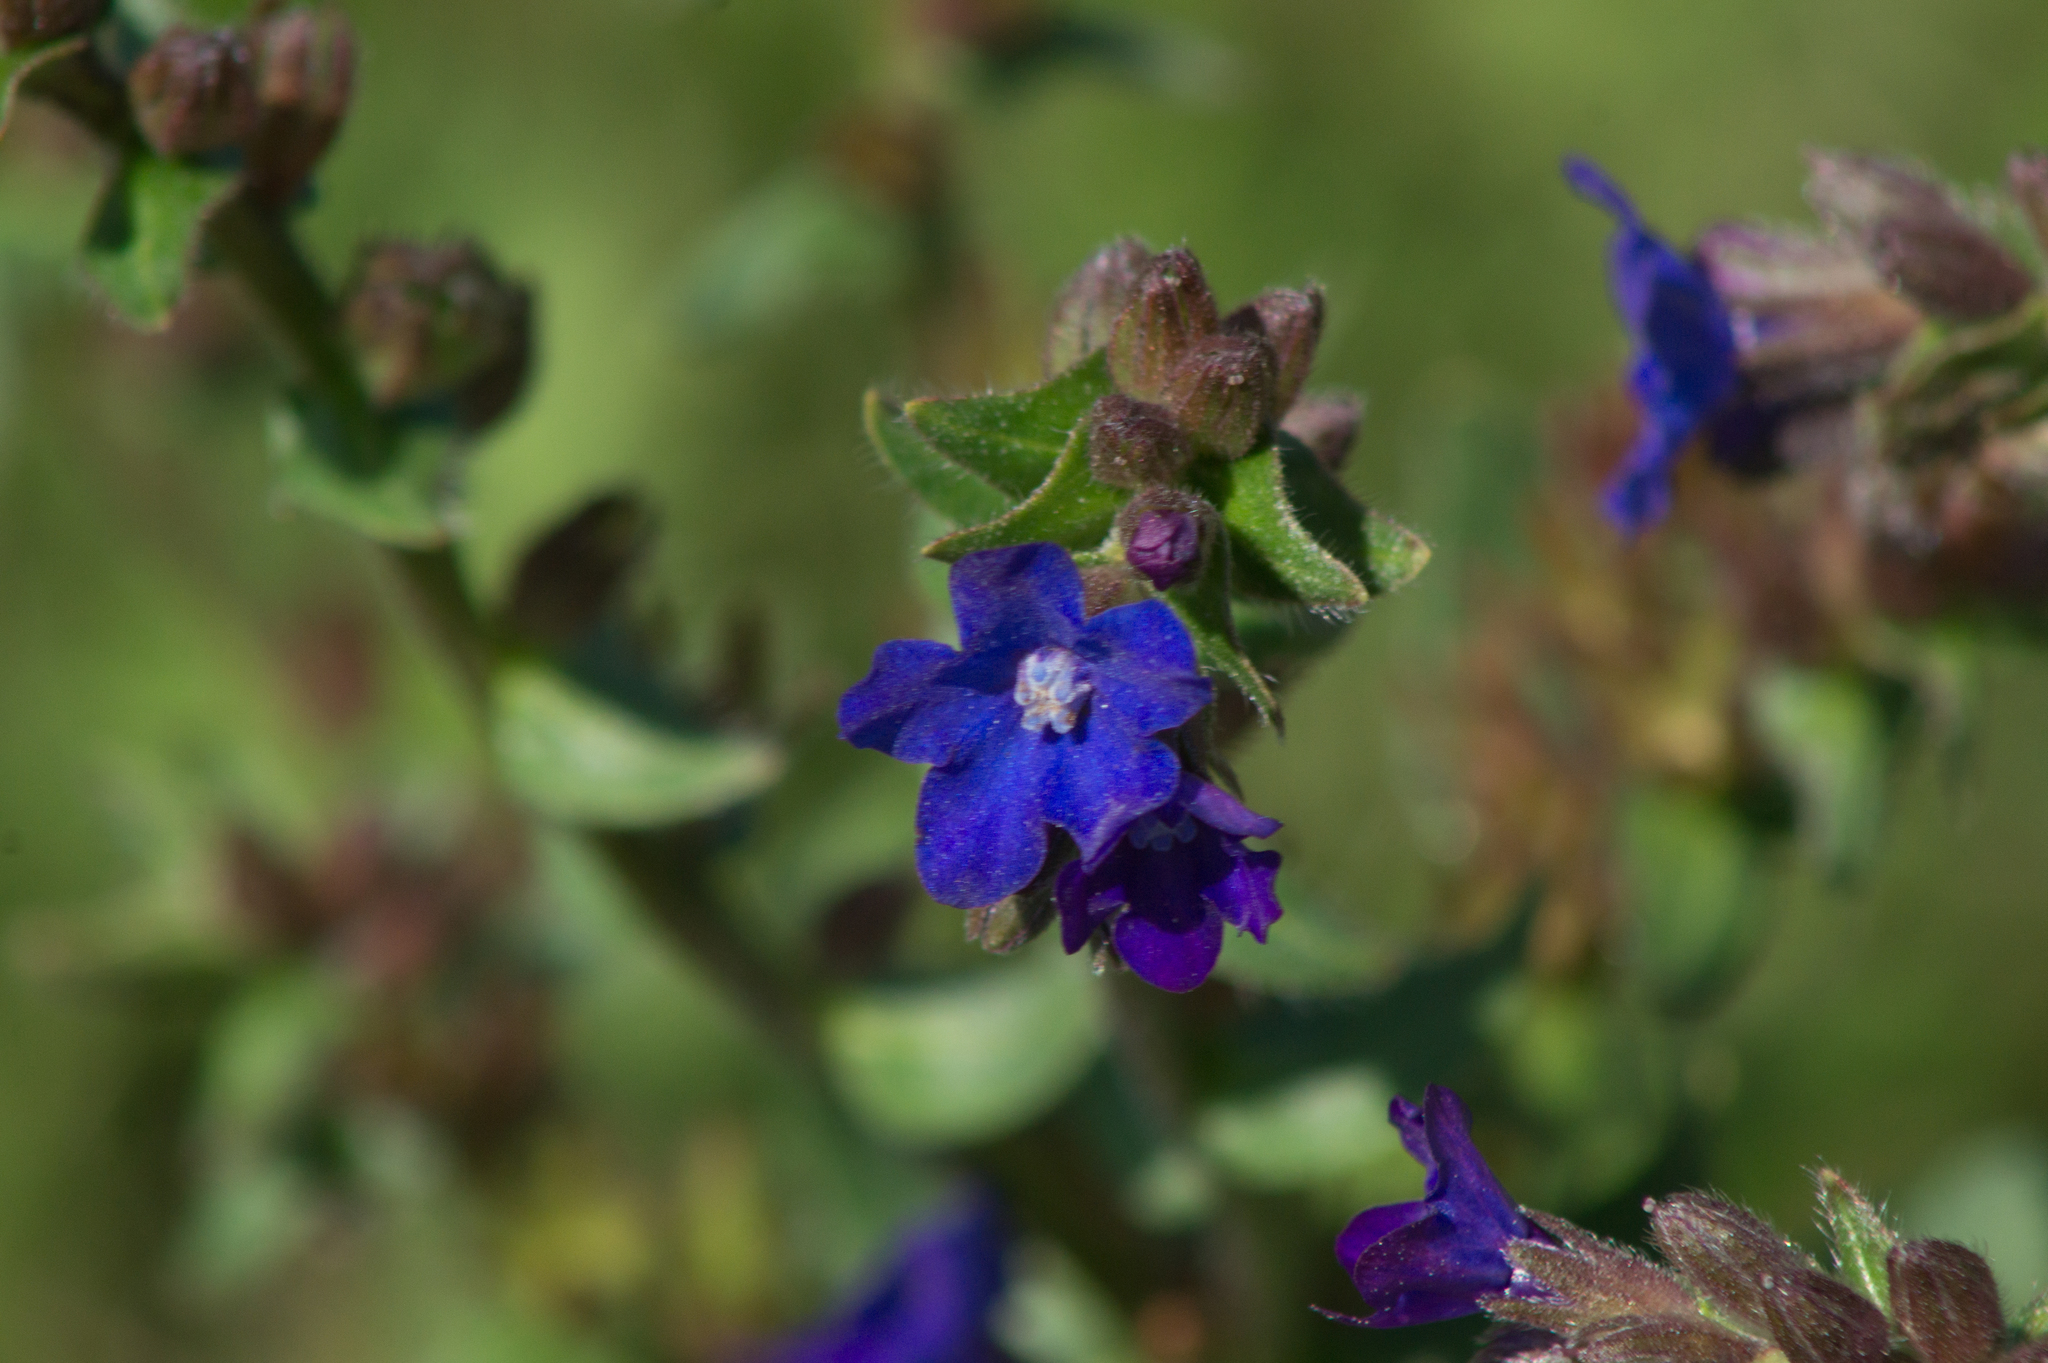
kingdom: Plantae
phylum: Tracheophyta
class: Magnoliopsida
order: Boraginales
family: Boraginaceae
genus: Anchusa
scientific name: Anchusa officinalis
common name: Alkanet
